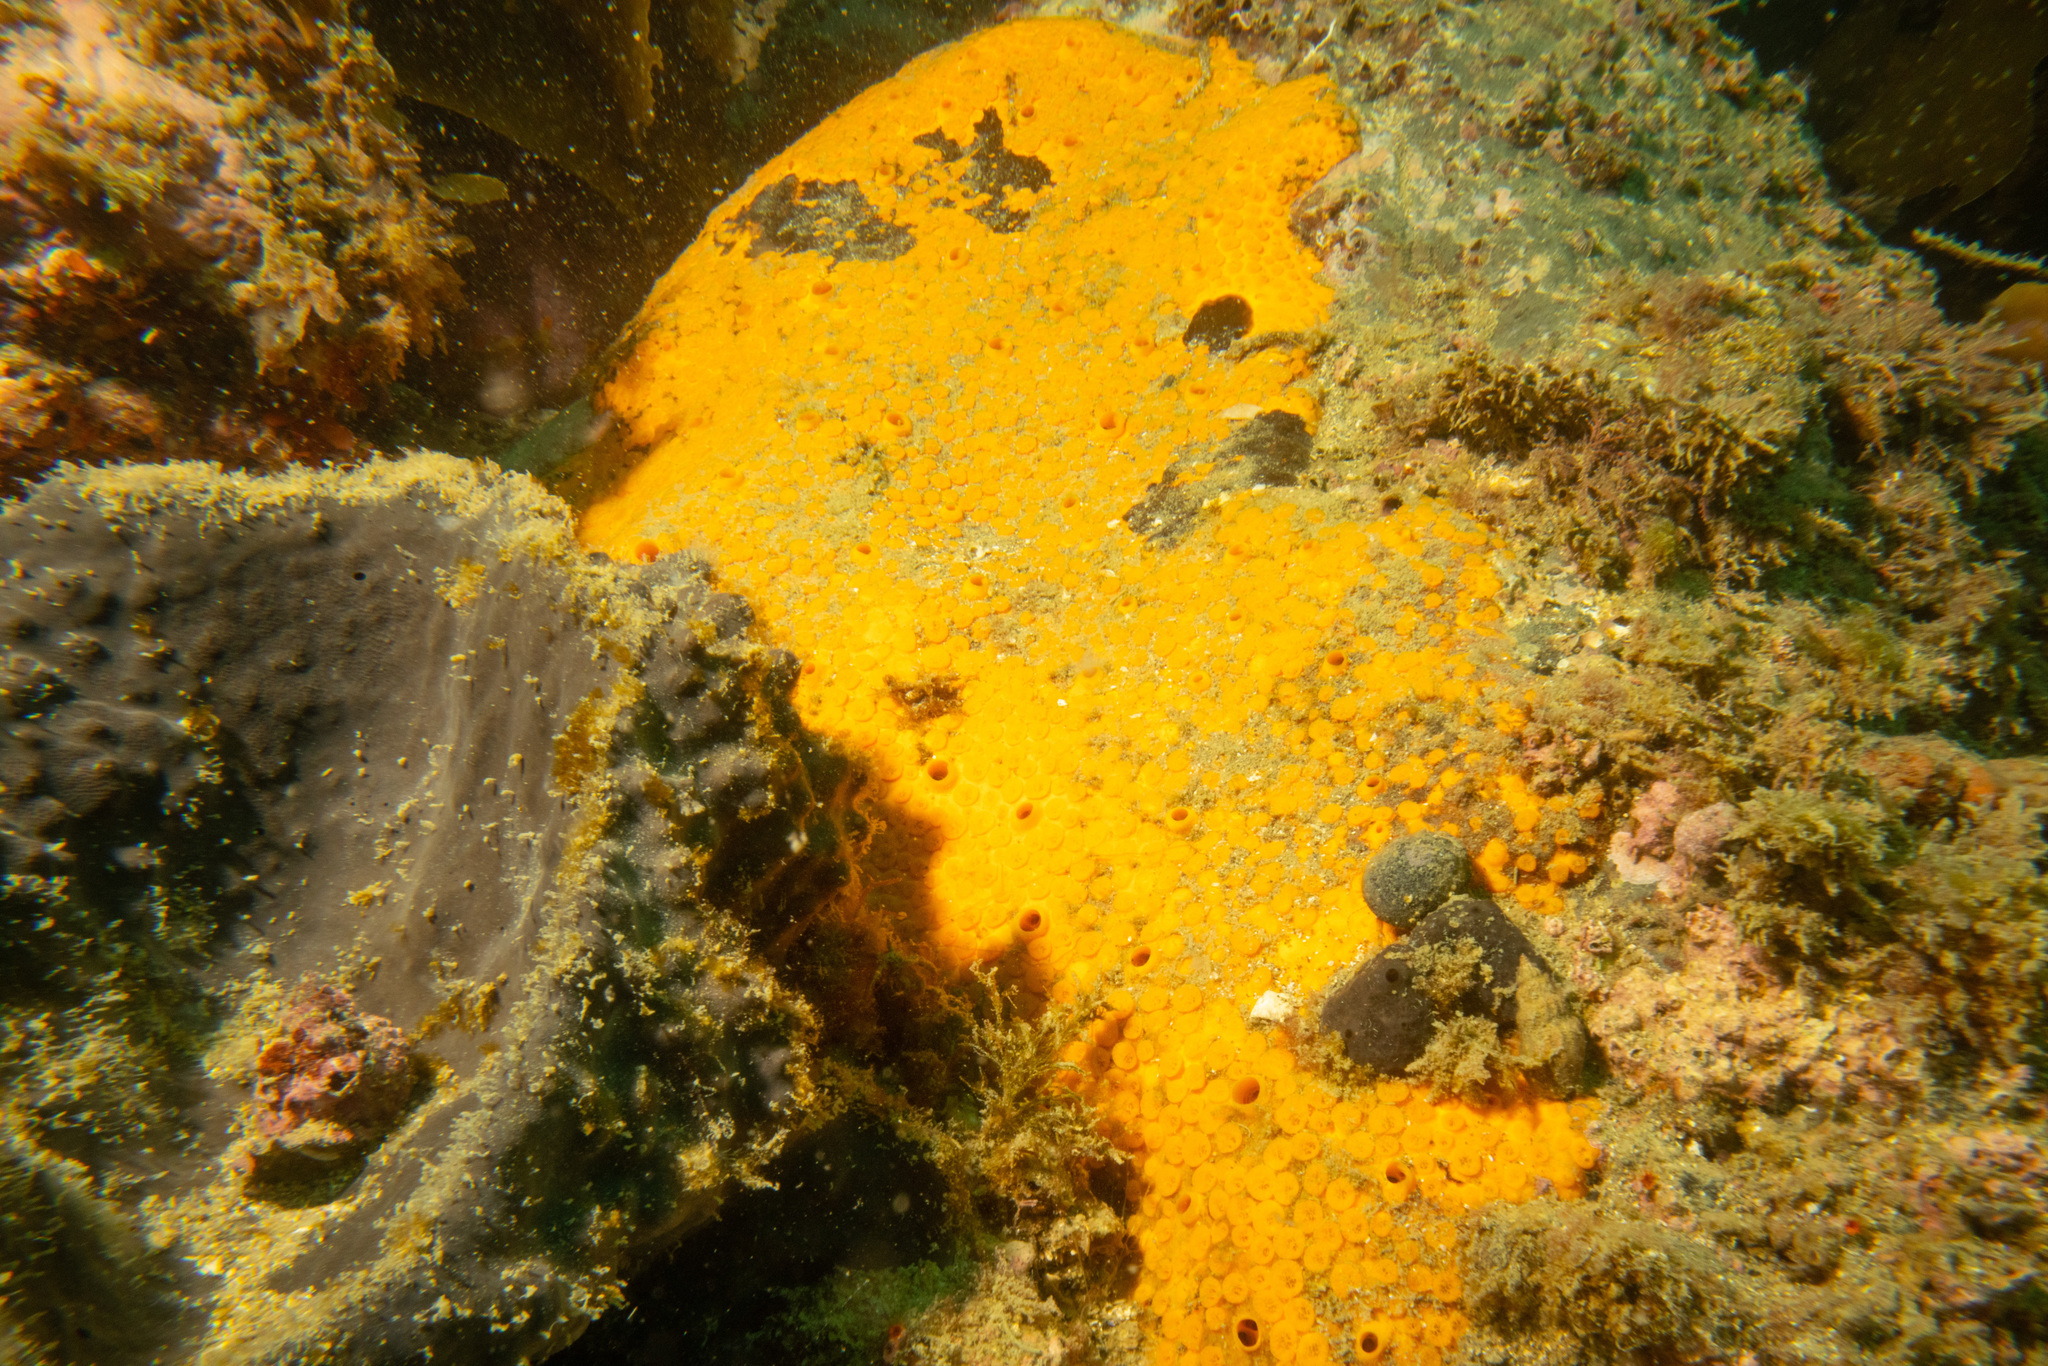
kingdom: Animalia
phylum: Porifera
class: Demospongiae
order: Clionaida
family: Clionaidae
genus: Cliona
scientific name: Cliona celata
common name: Boring sponge
